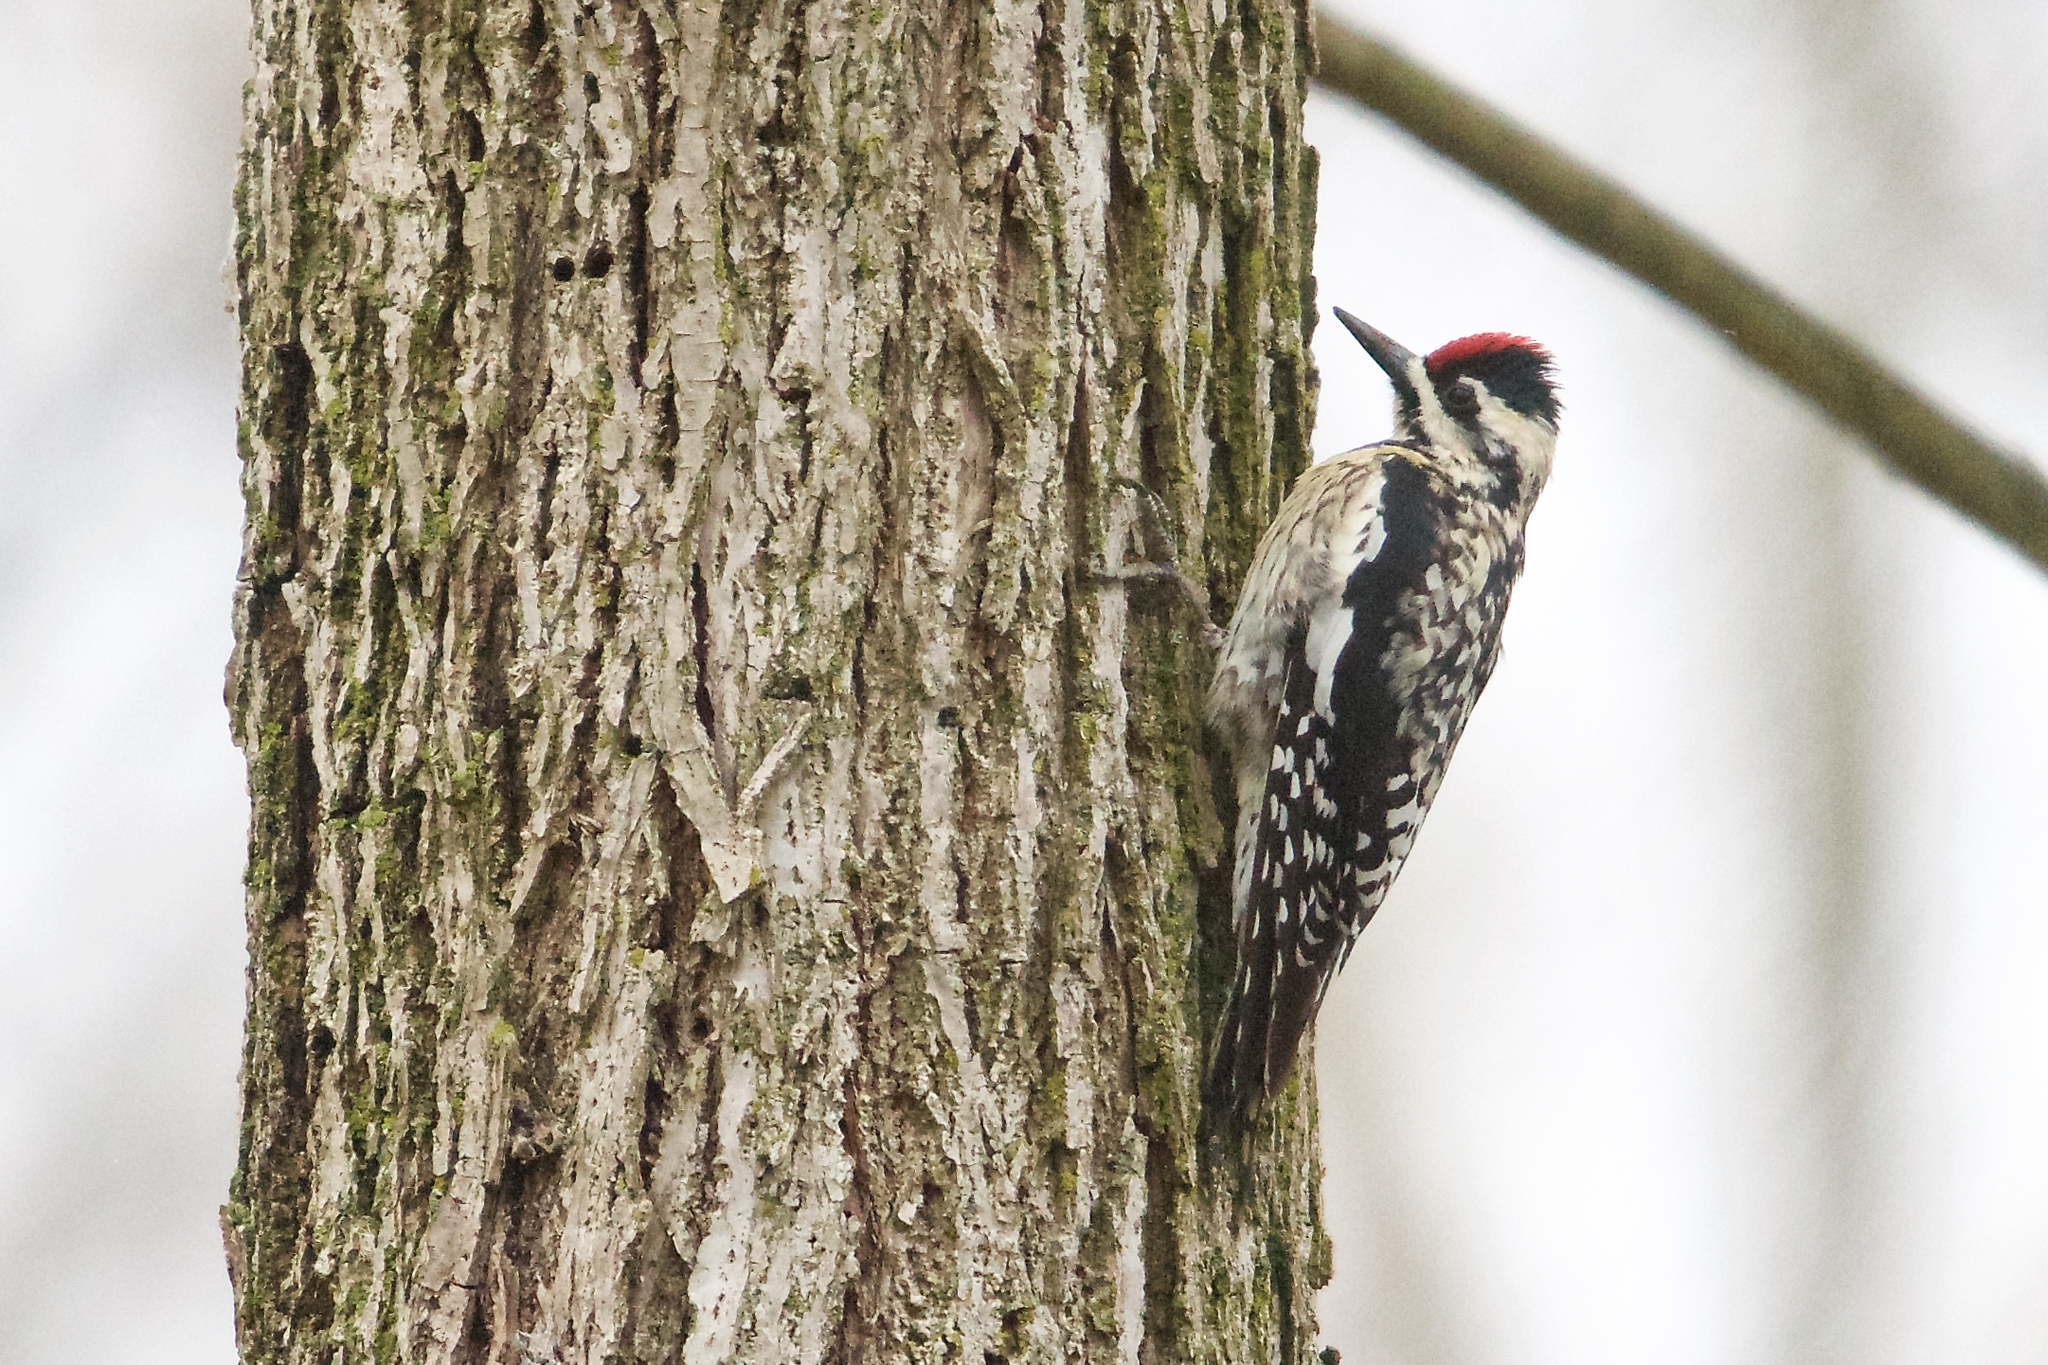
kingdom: Animalia
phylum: Chordata
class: Aves
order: Piciformes
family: Picidae
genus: Sphyrapicus
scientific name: Sphyrapicus varius
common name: Yellow-bellied sapsucker
